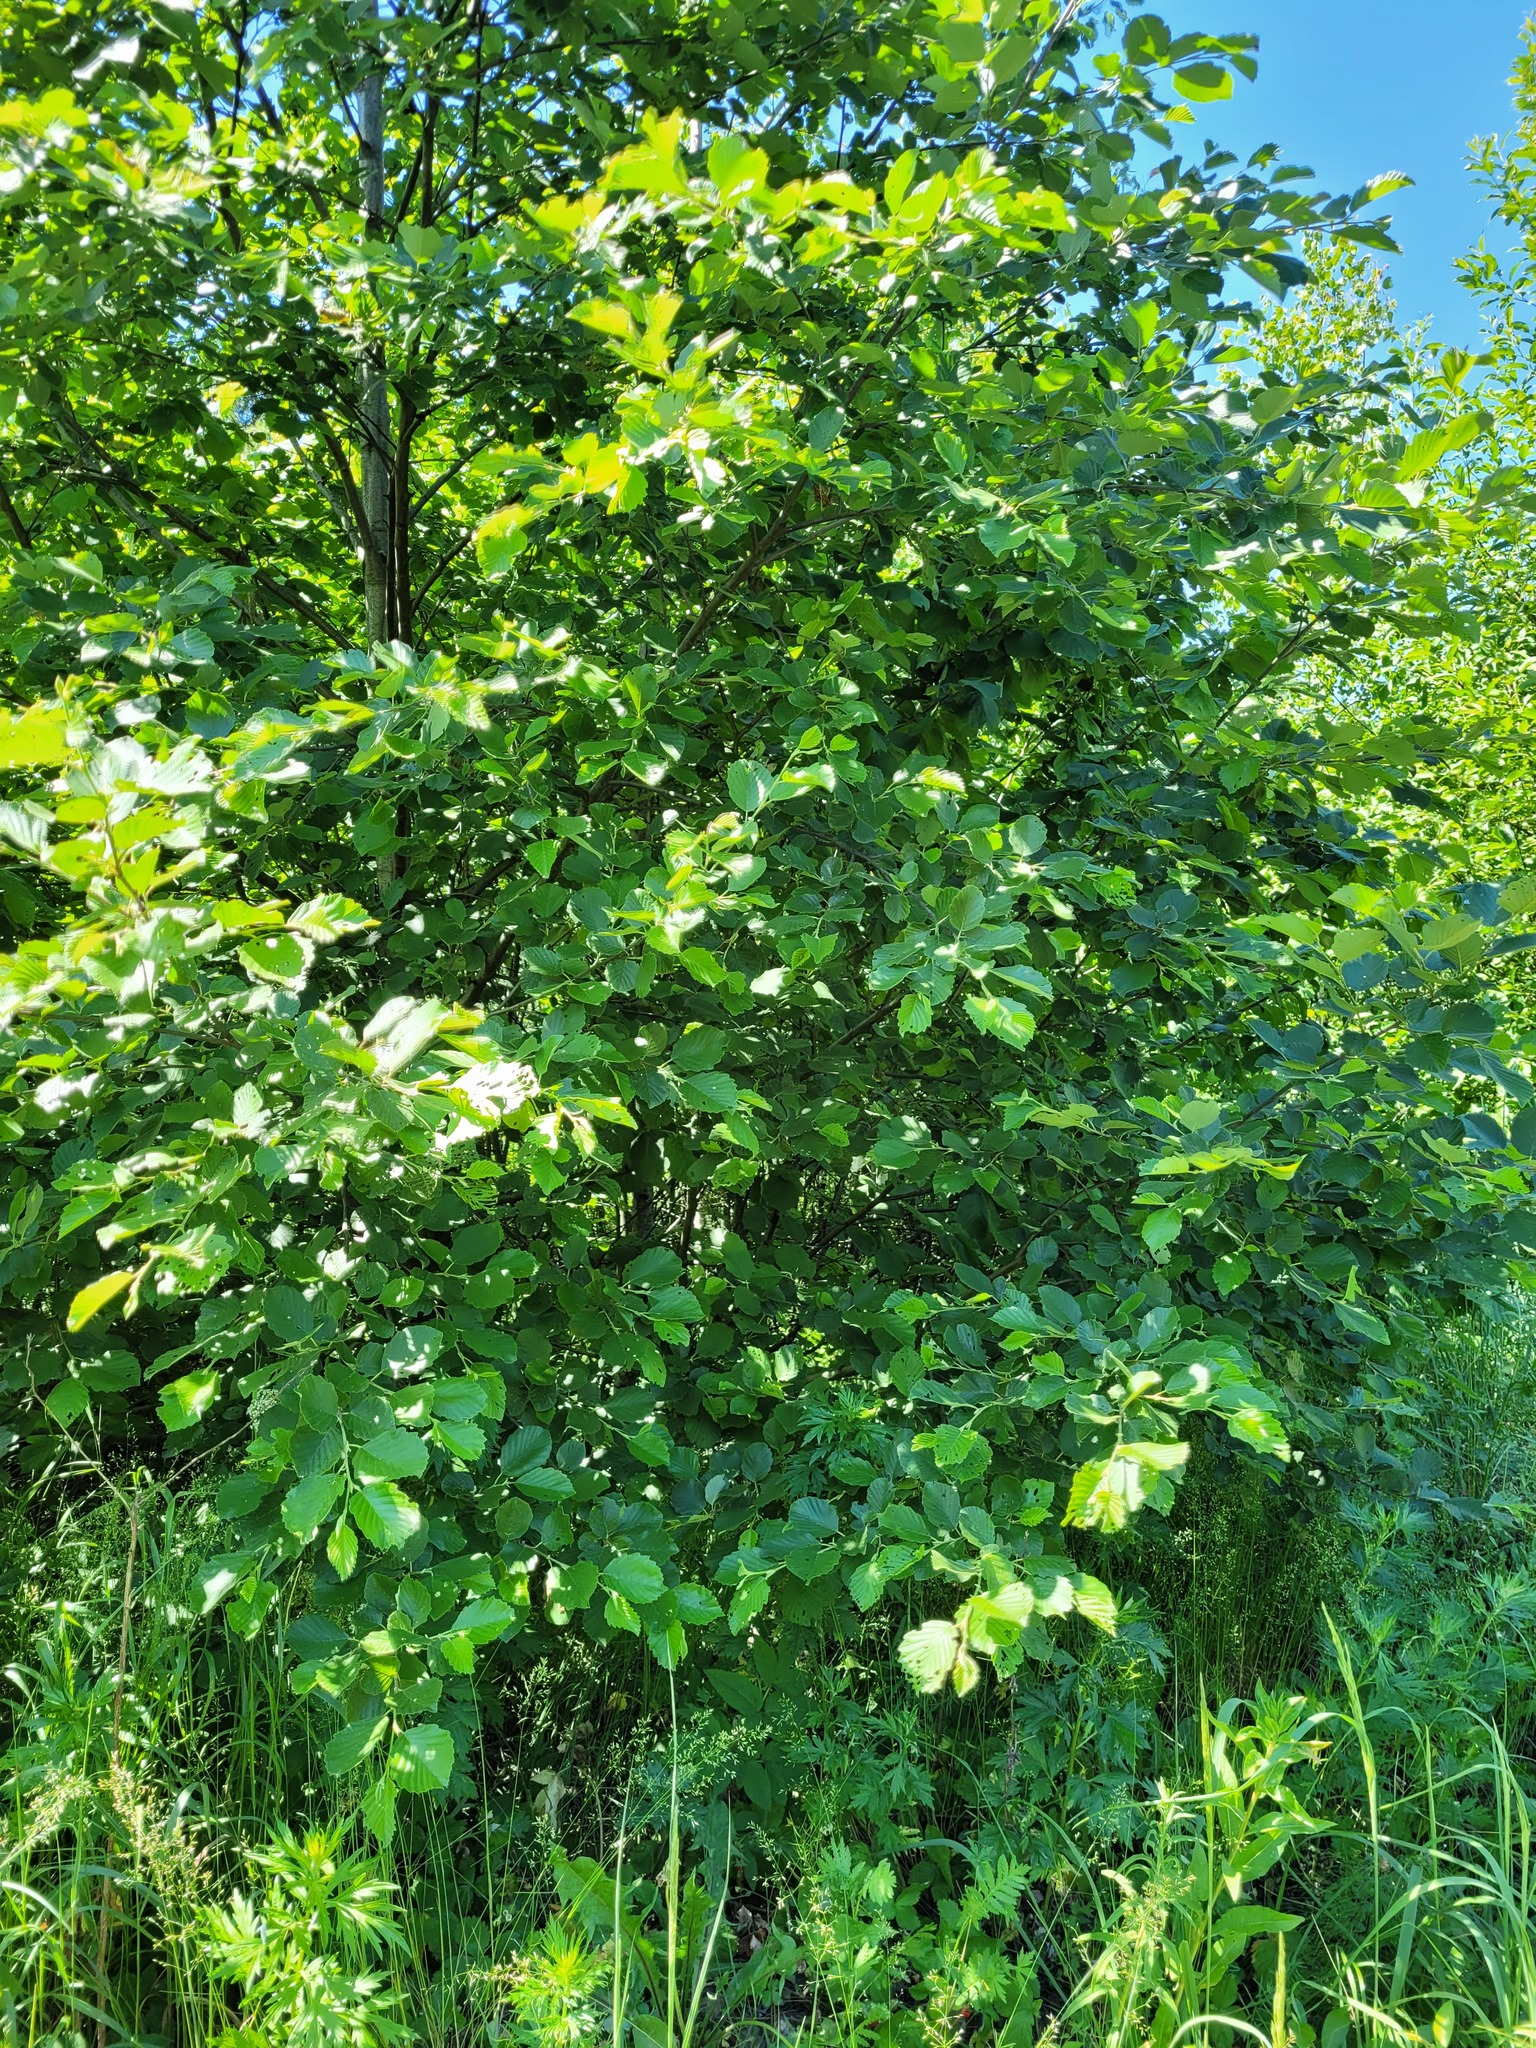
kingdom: Plantae
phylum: Tracheophyta
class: Magnoliopsida
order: Fagales
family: Betulaceae
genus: Alnus
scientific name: Alnus incana
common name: Grey alder
